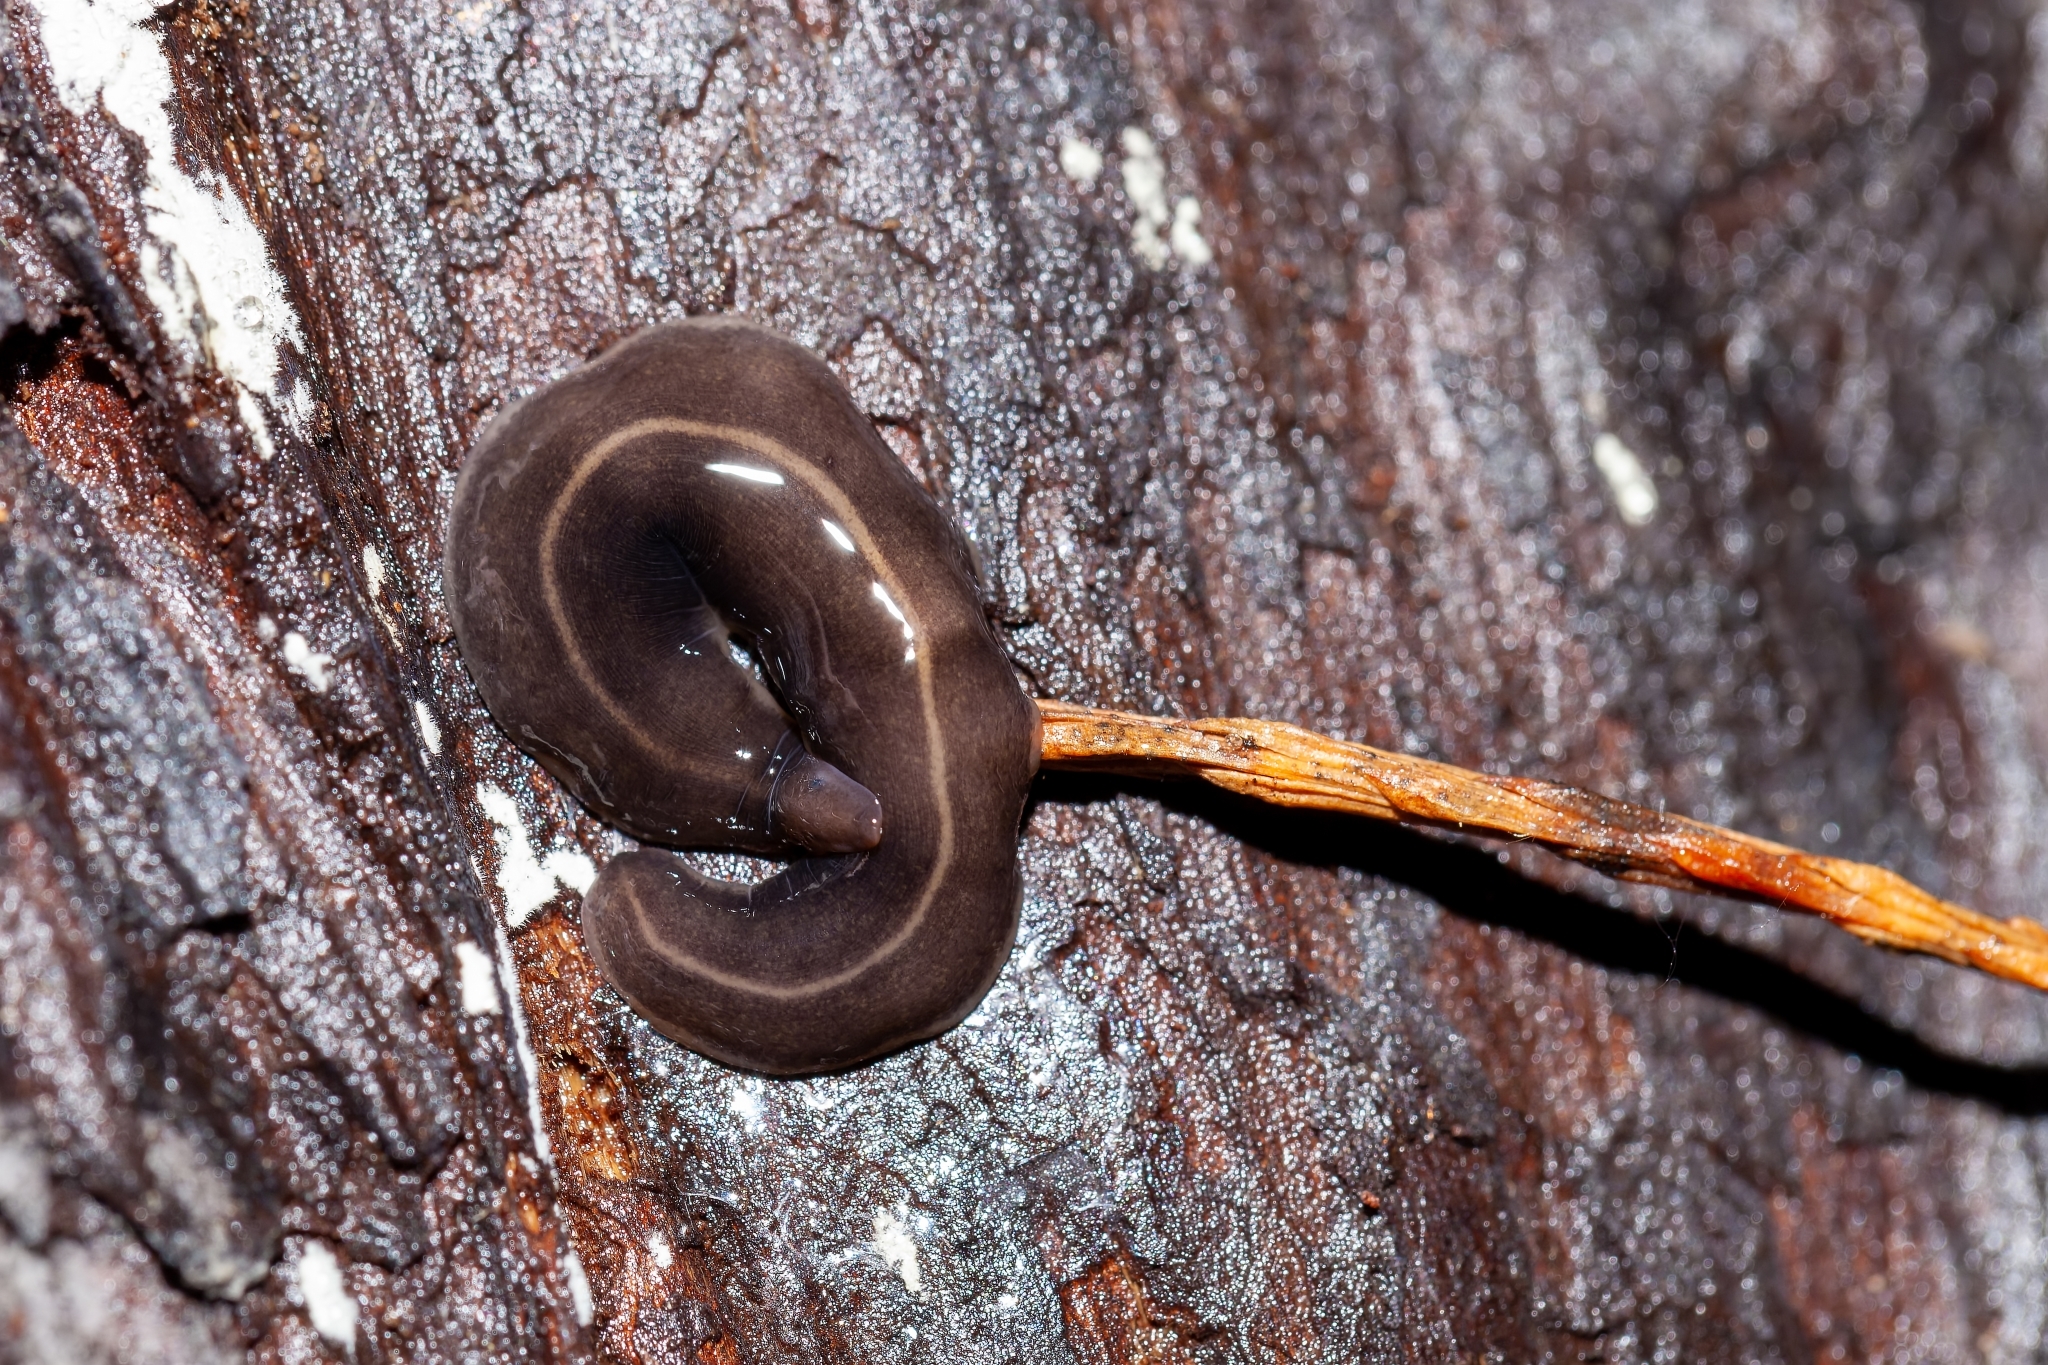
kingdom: Animalia
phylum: Platyhelminthes
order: Tricladida
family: Geoplanidae
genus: Platydemus
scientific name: Platydemus manokwari
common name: New guinea flatworm
